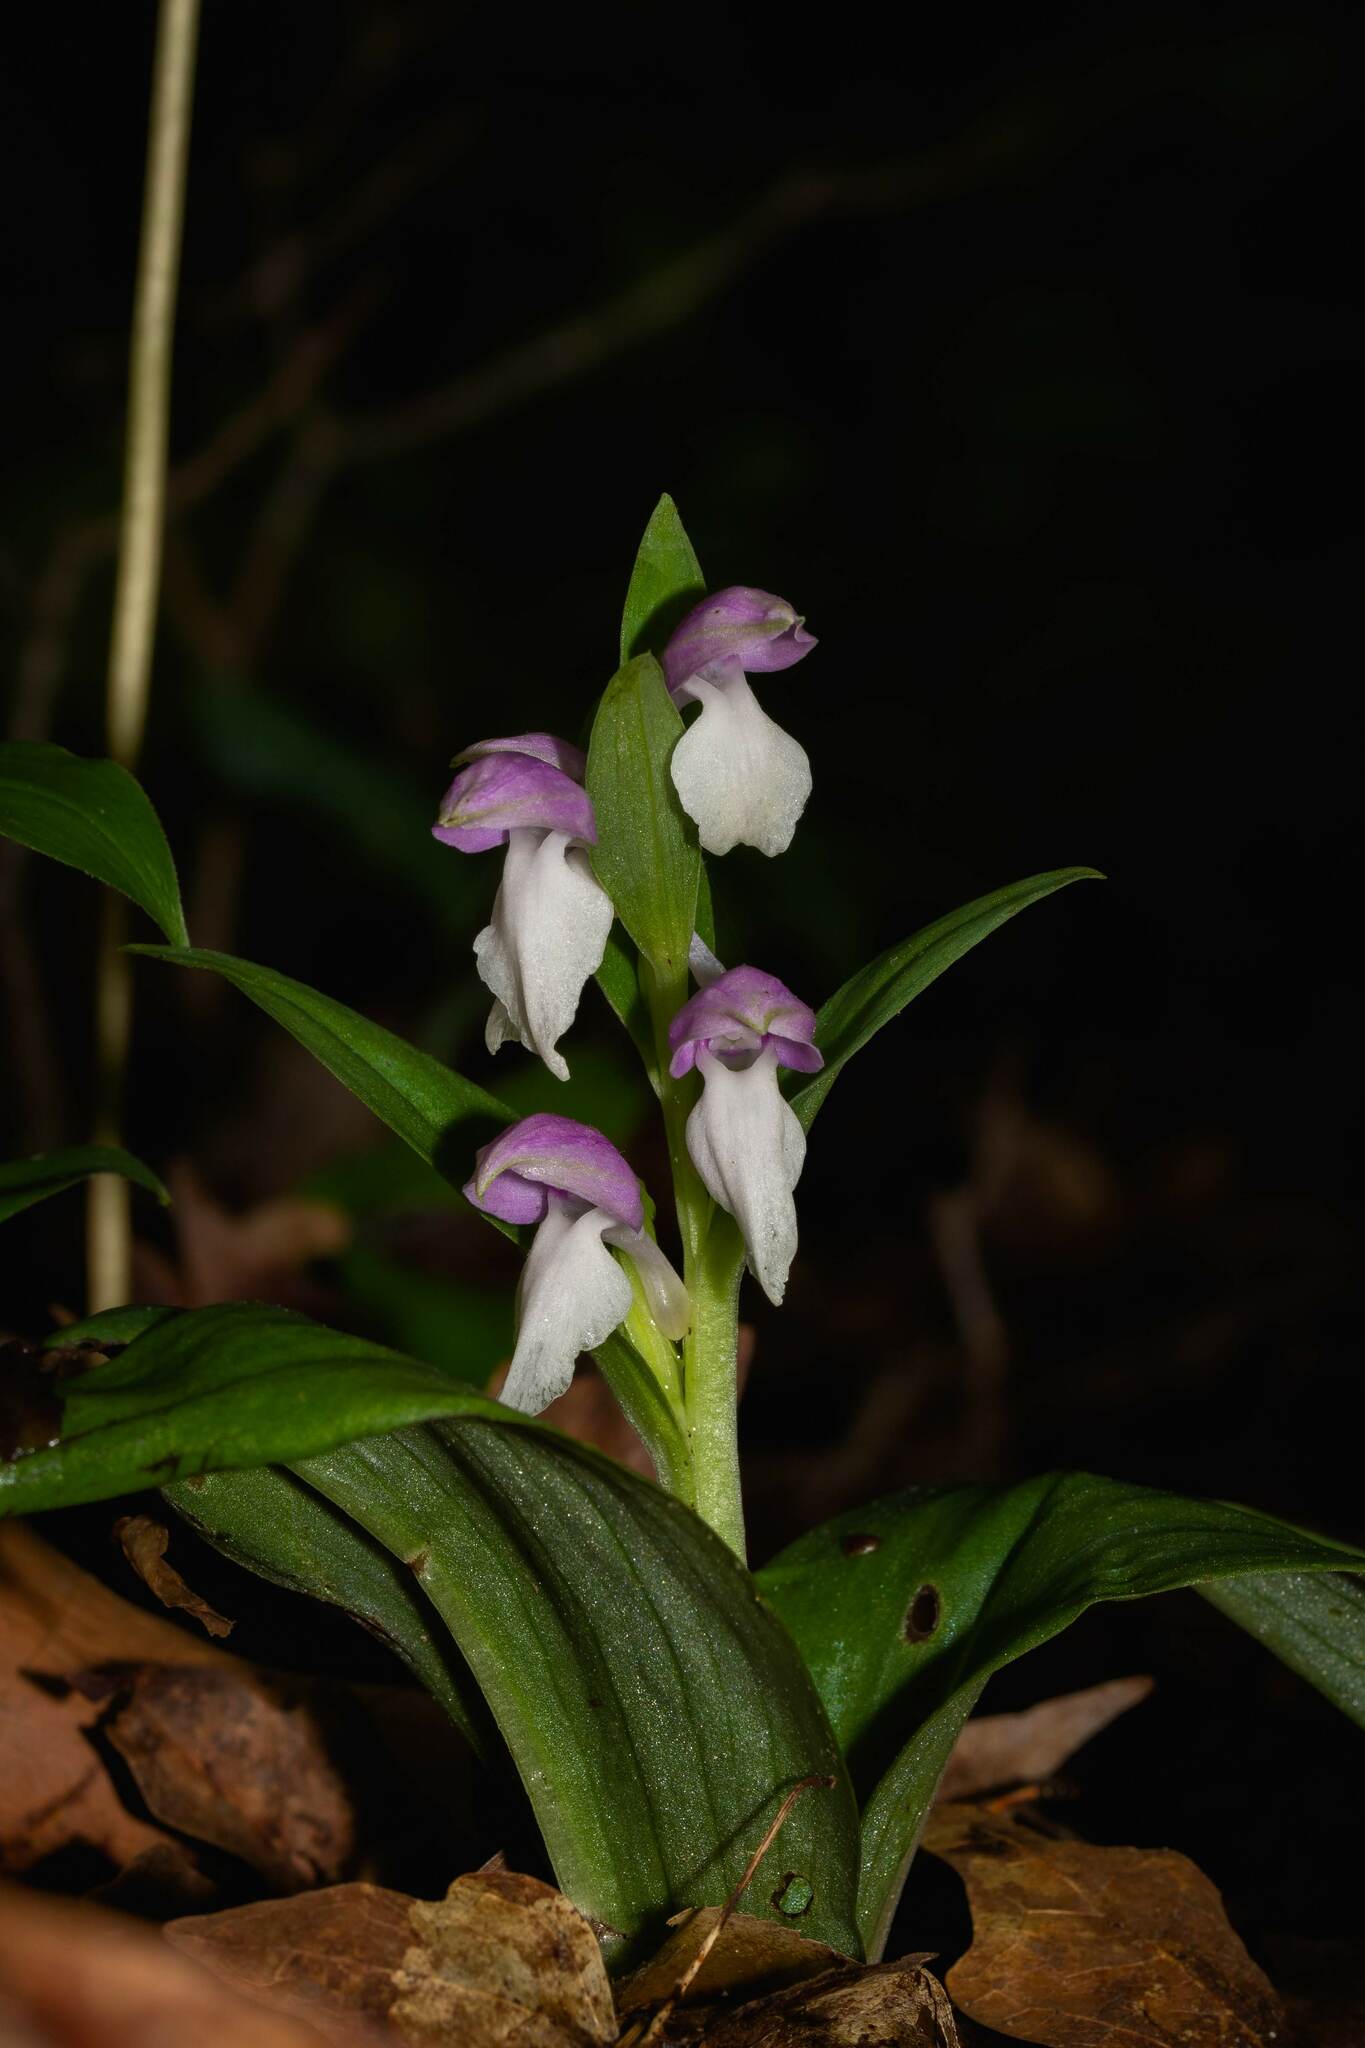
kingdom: Plantae
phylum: Tracheophyta
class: Liliopsida
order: Asparagales
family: Orchidaceae
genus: Galearis
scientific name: Galearis spectabilis
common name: Purple-hooded orchis
